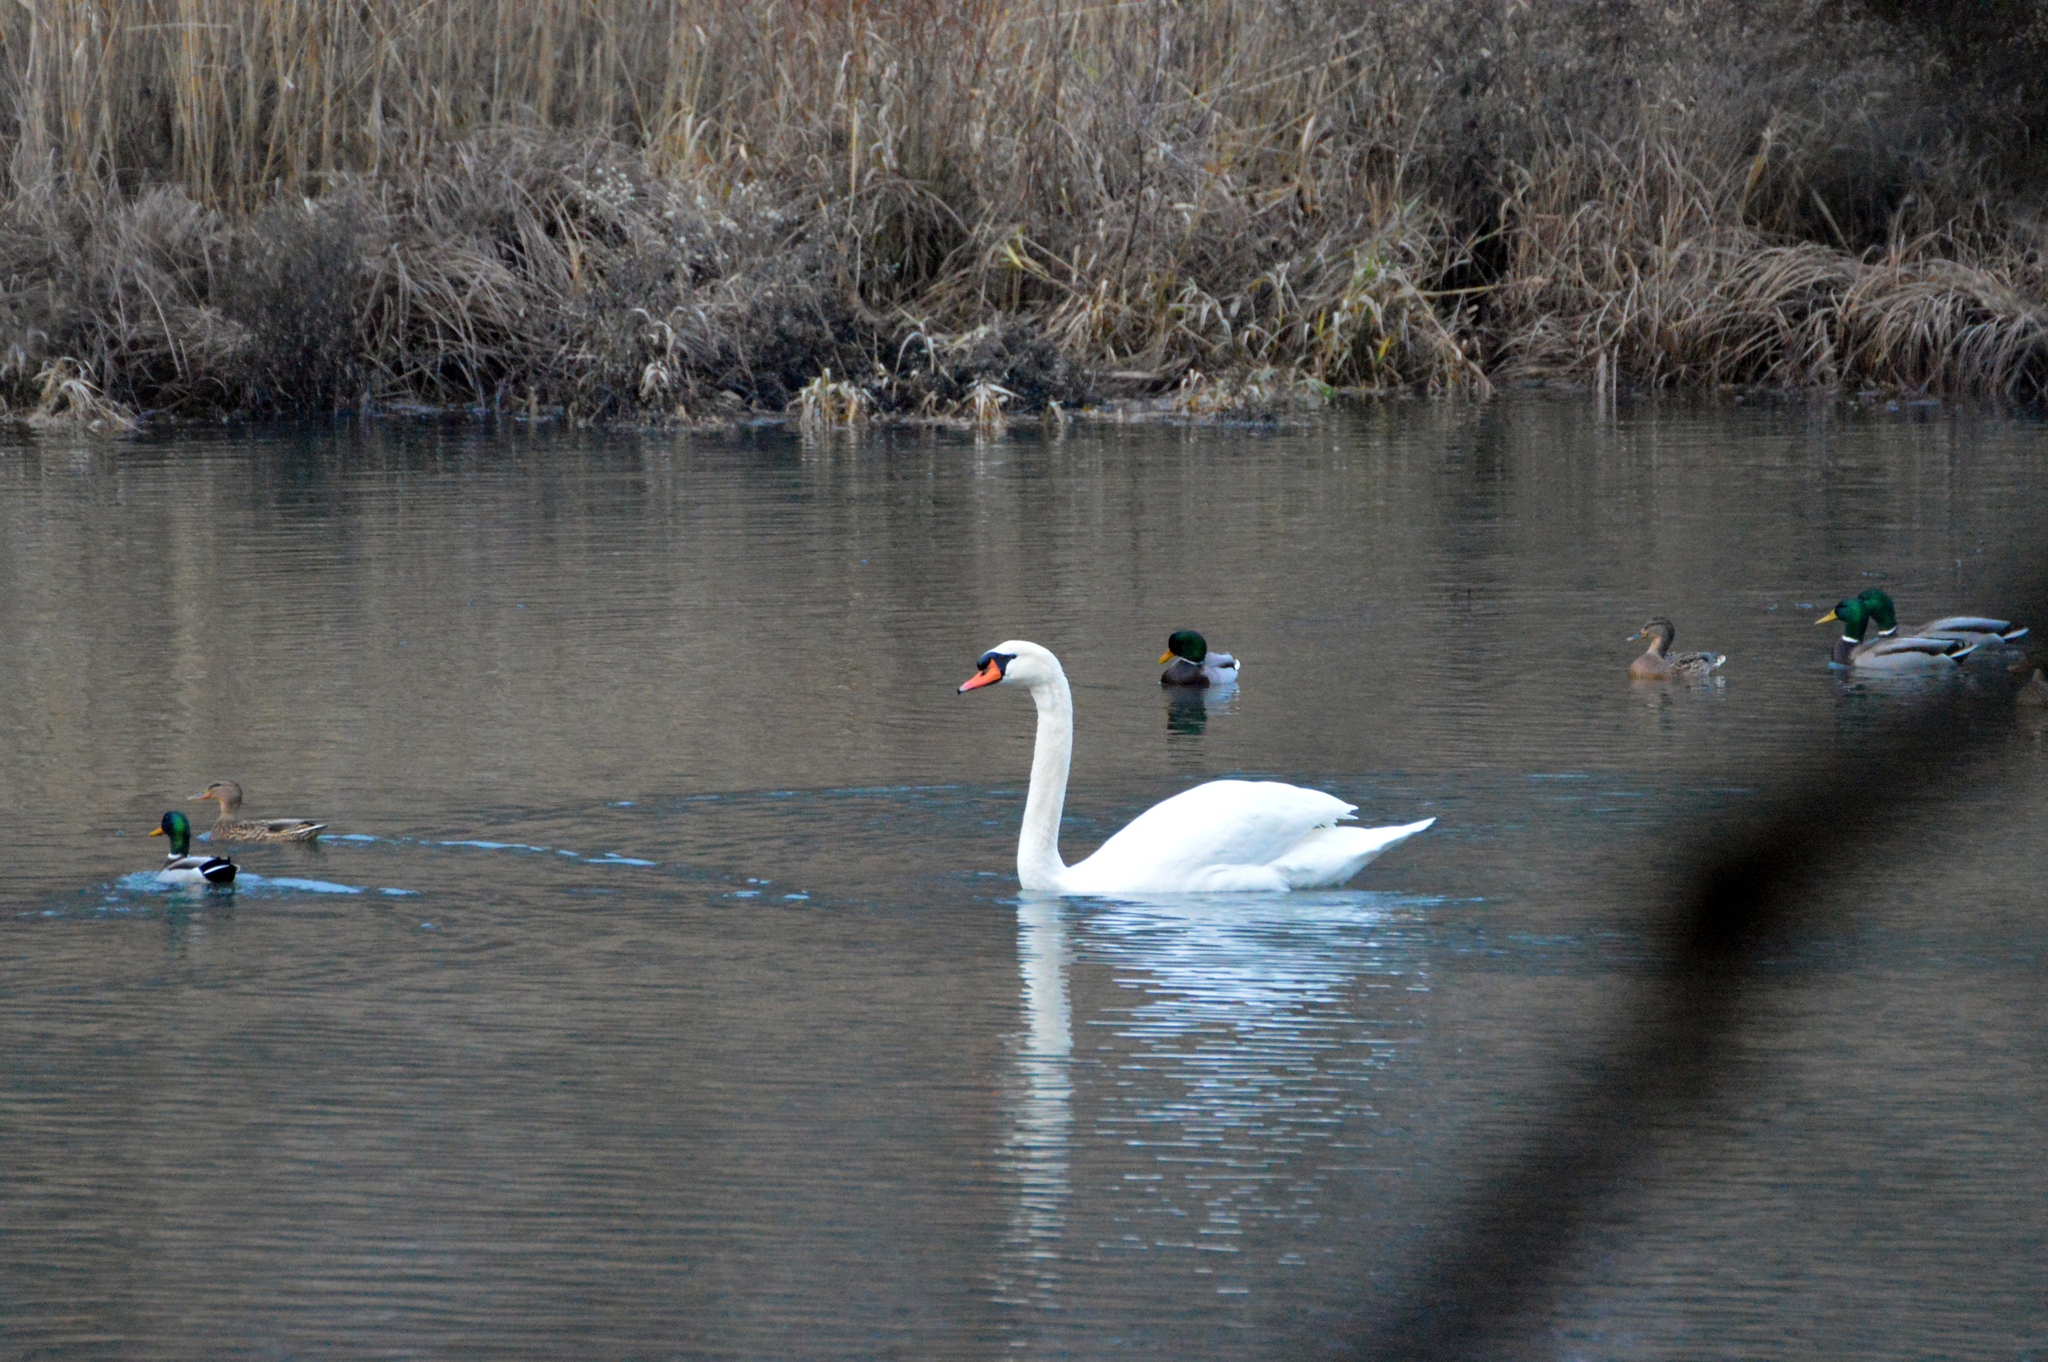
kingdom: Animalia
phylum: Chordata
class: Aves
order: Anseriformes
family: Anatidae
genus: Anas
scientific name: Anas platyrhynchos
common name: Mallard
